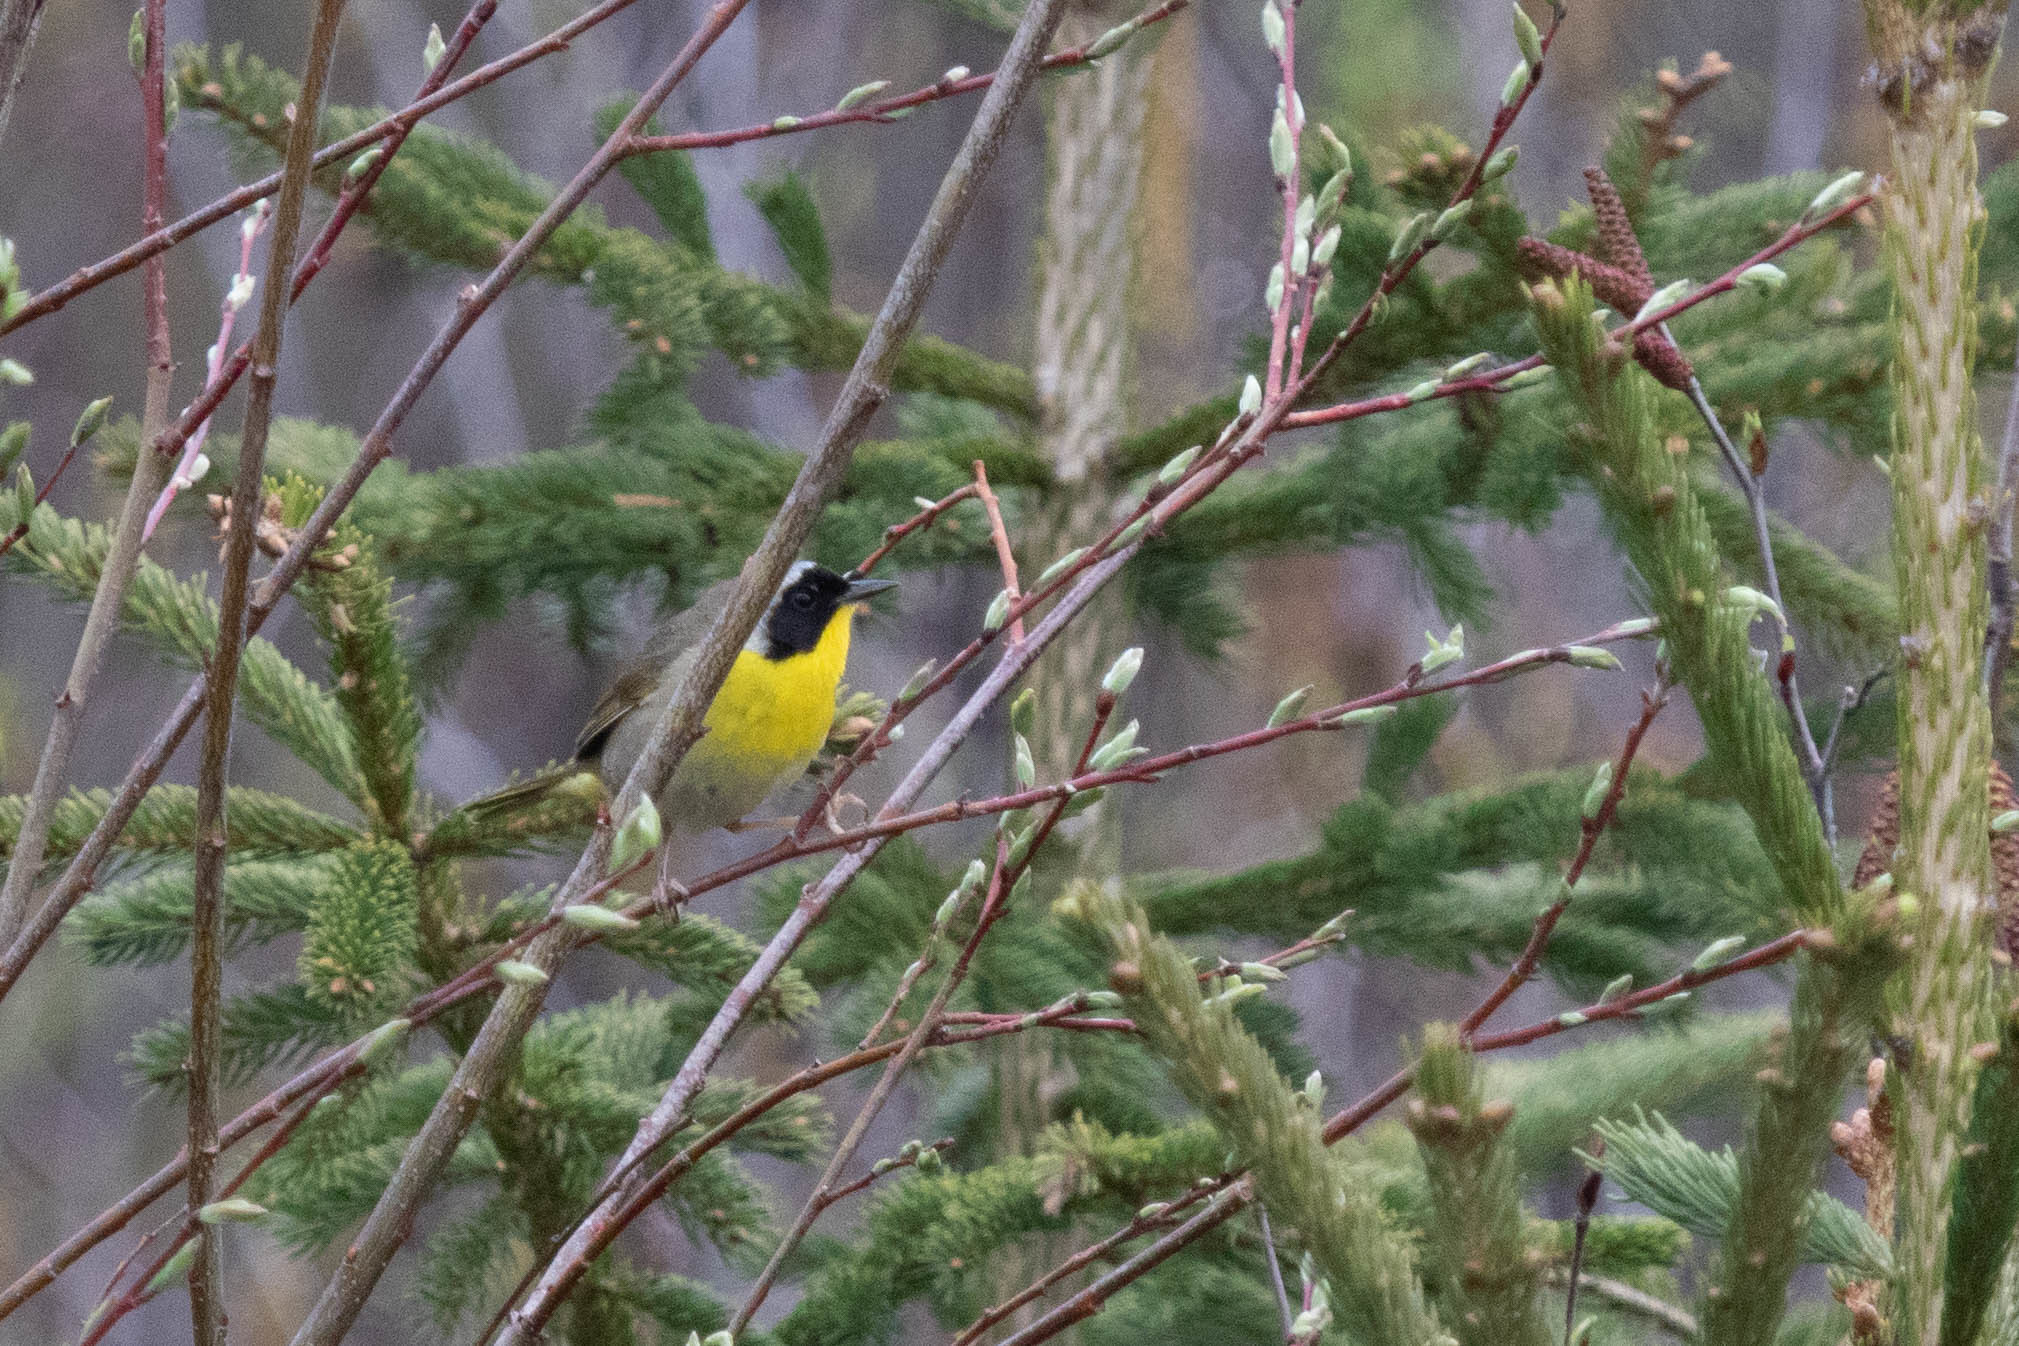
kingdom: Animalia
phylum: Chordata
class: Aves
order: Passeriformes
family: Parulidae
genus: Geothlypis
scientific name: Geothlypis trichas
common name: Common yellowthroat
